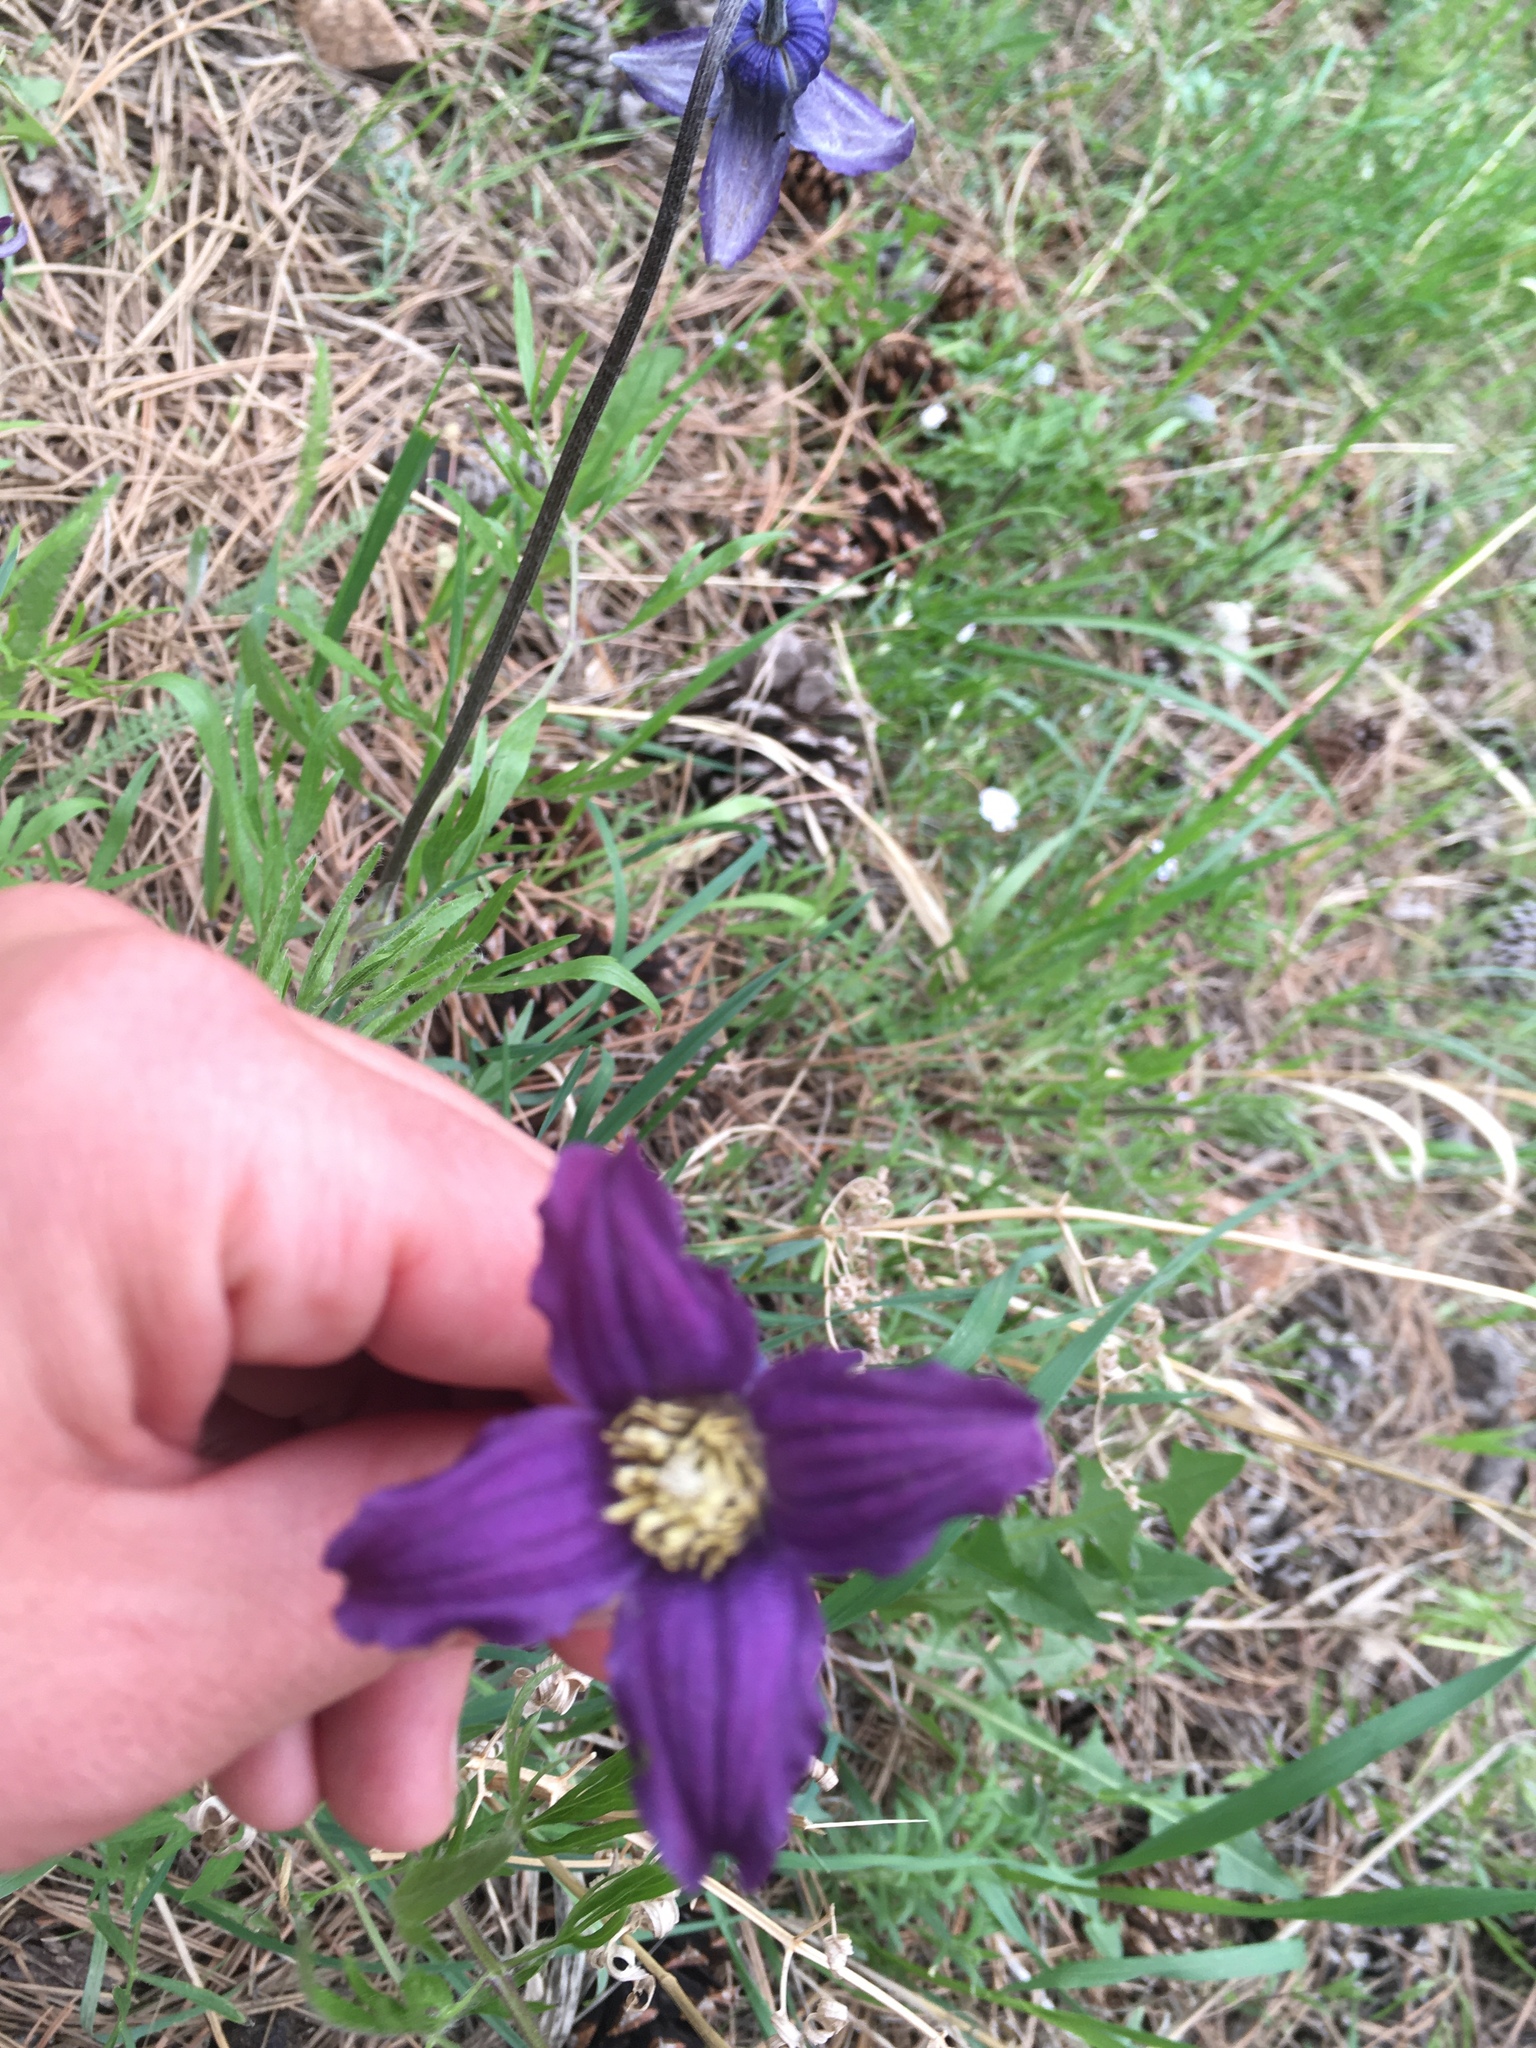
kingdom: Plantae
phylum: Tracheophyta
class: Magnoliopsida
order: Ranunculales
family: Ranunculaceae
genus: Clematis
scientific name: Clematis hirsutissima
